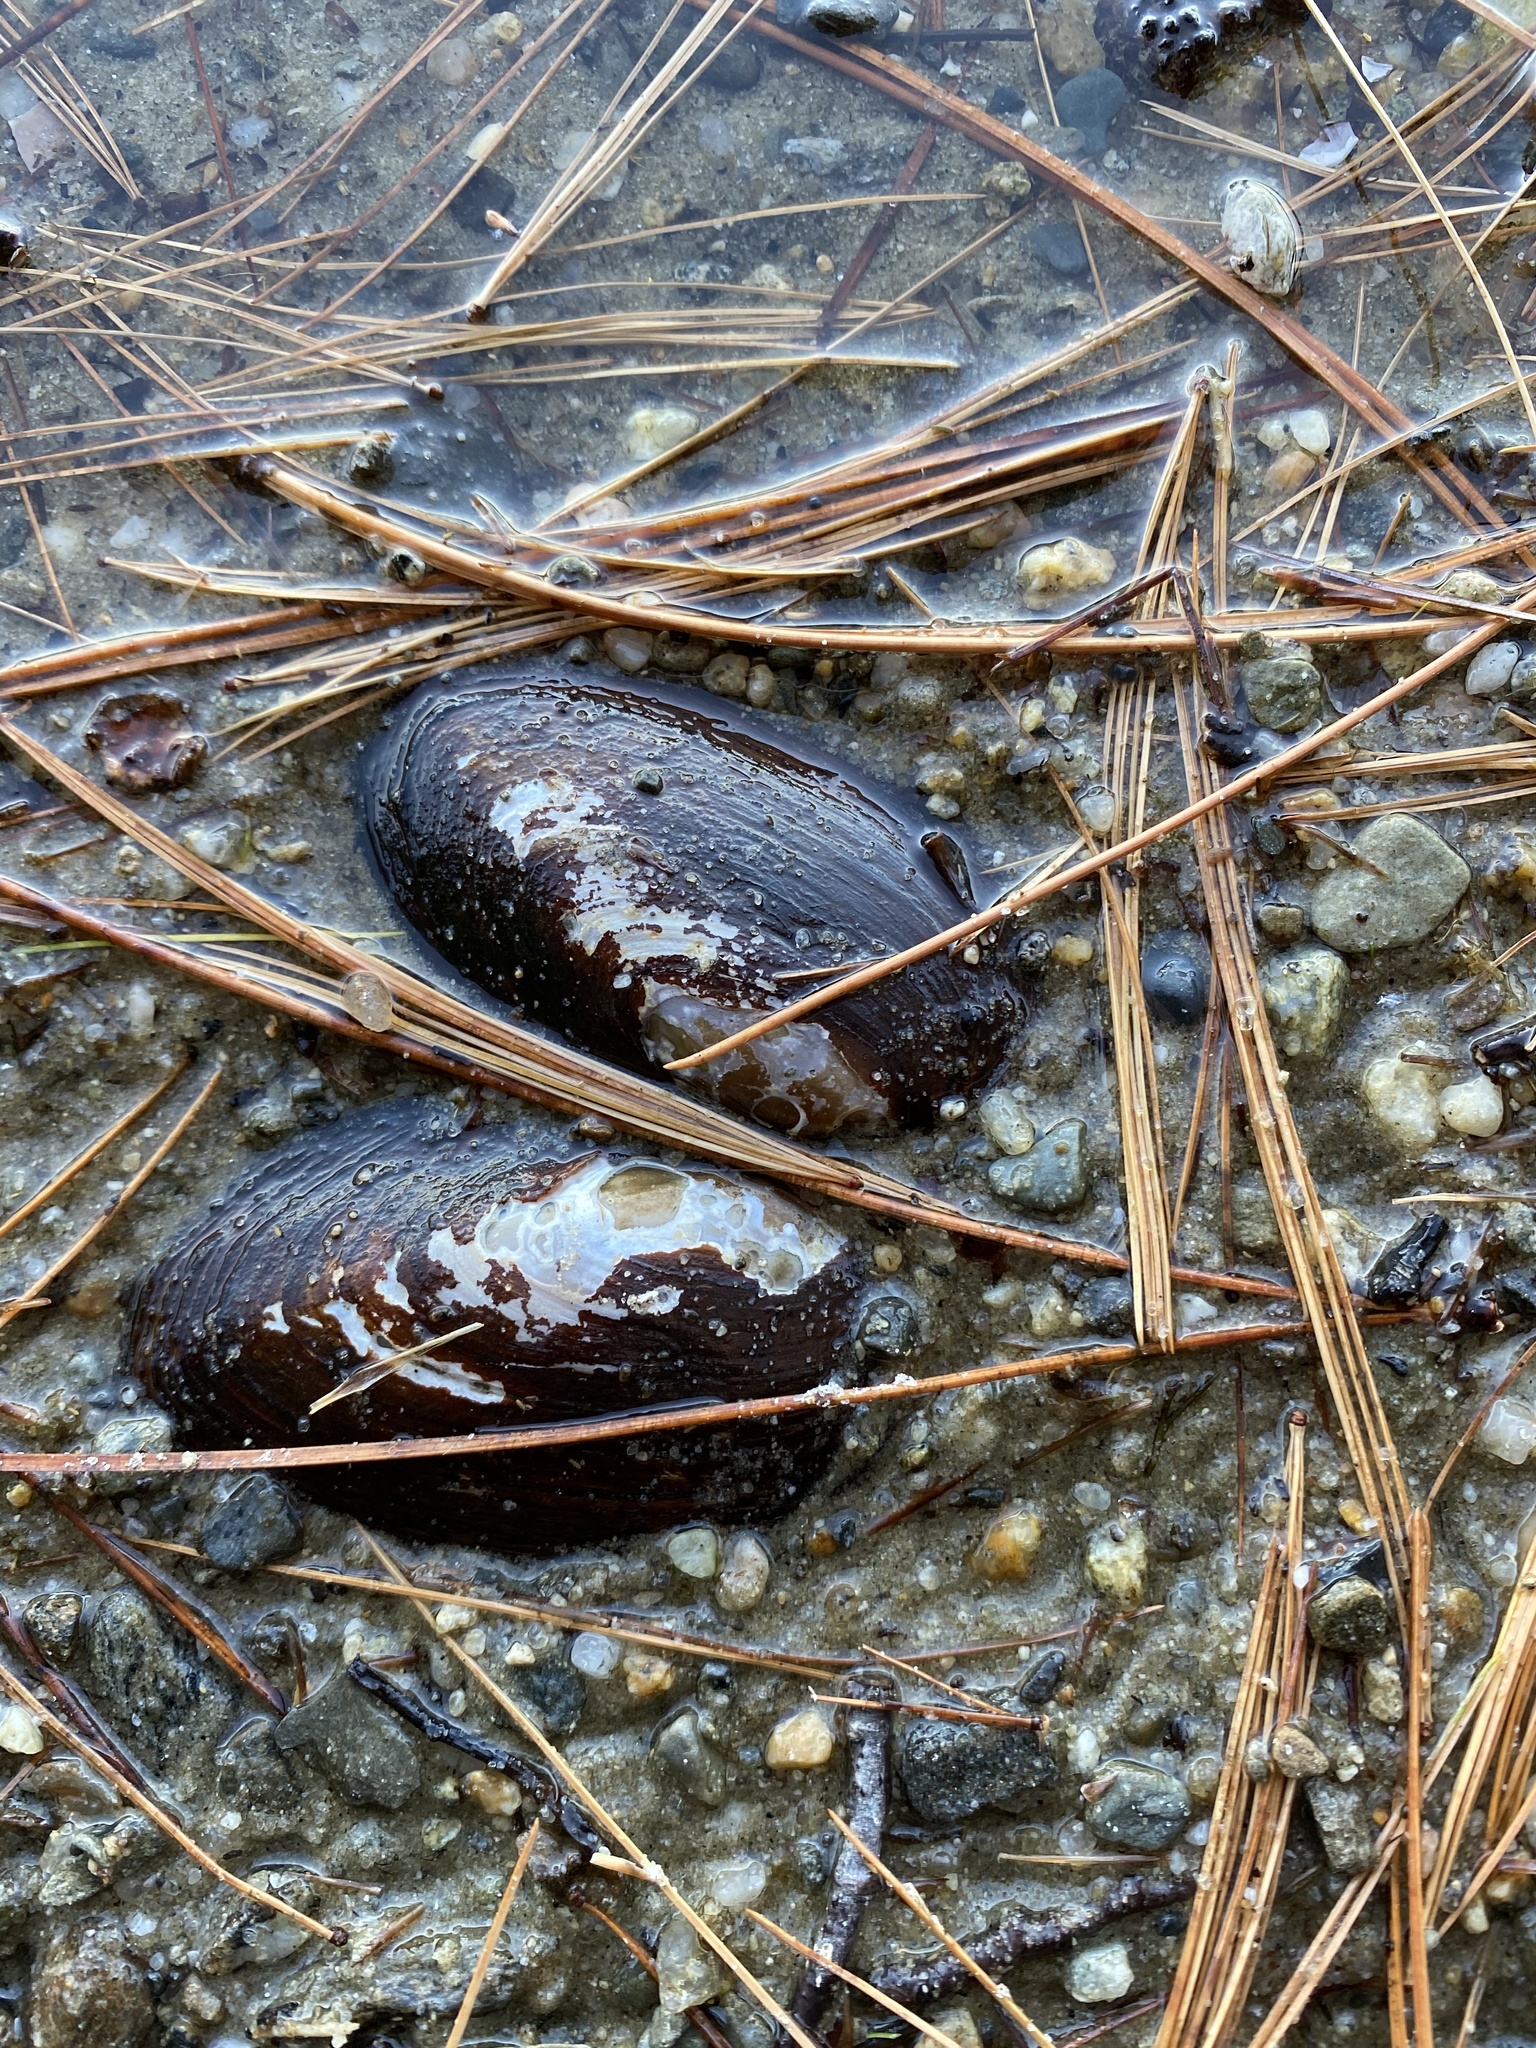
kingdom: Animalia
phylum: Mollusca
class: Bivalvia
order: Unionida
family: Unionidae
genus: Elliptio
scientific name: Elliptio complanata
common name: Eastern elliptio
